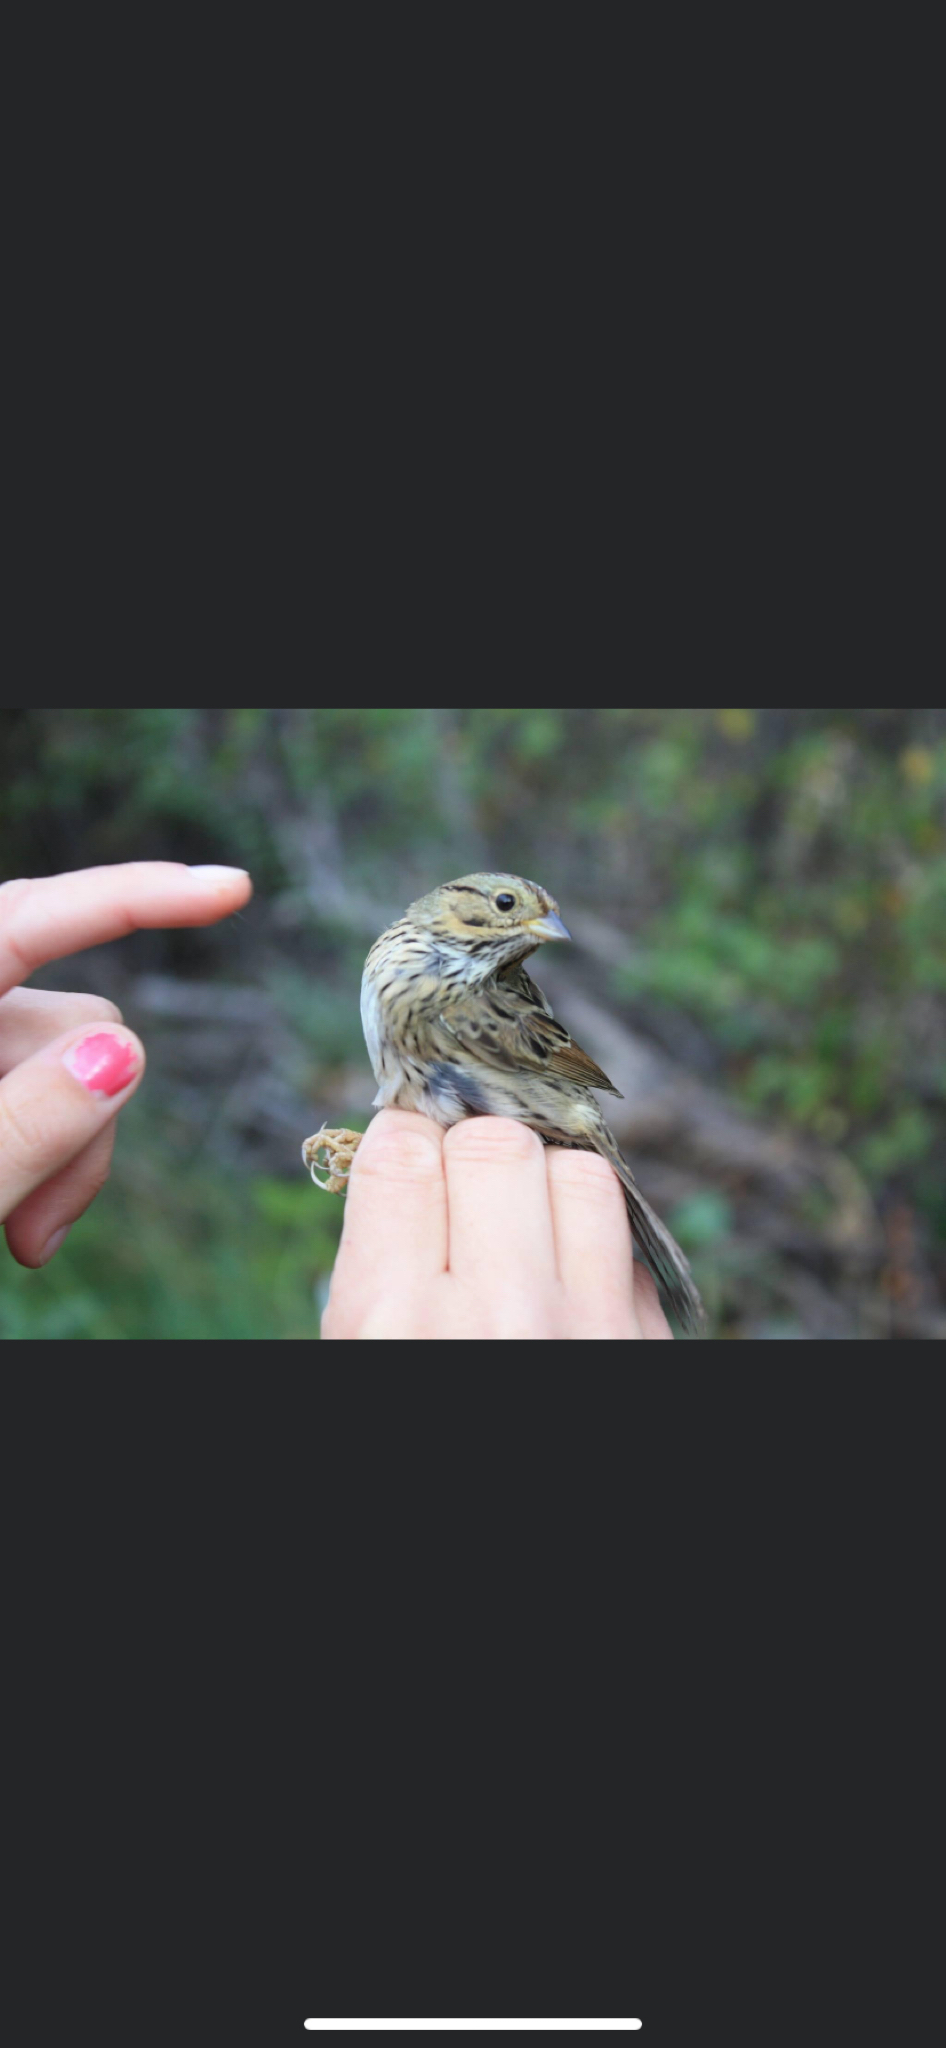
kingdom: Animalia
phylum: Chordata
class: Aves
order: Passeriformes
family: Passerellidae
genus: Melospiza
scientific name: Melospiza lincolnii
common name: Lincoln's sparrow
